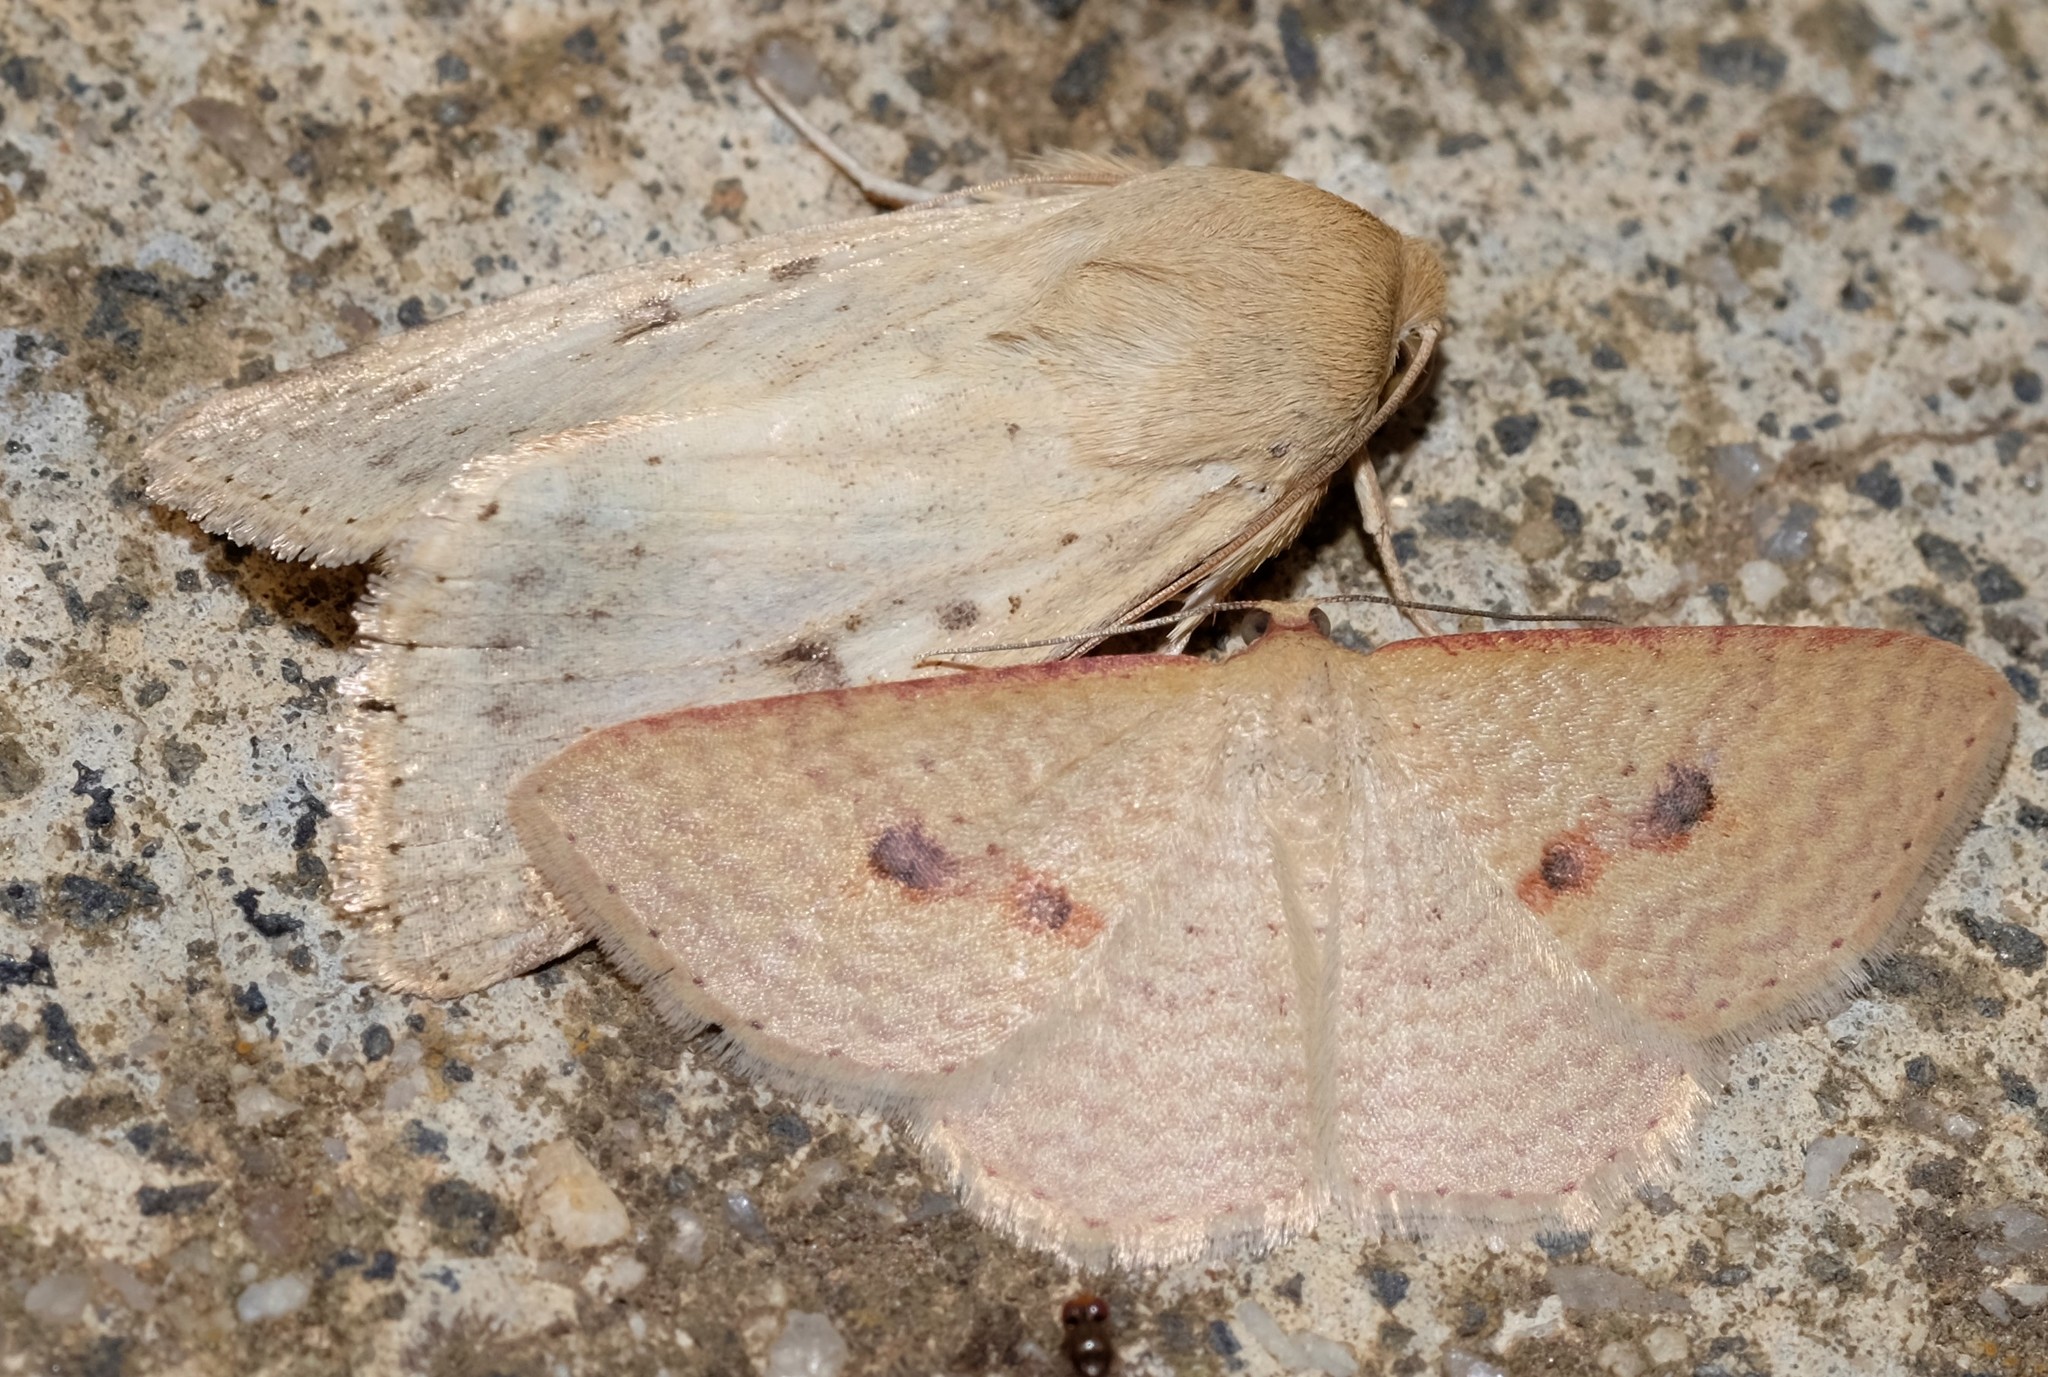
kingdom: Animalia
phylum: Arthropoda
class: Insecta
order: Lepidoptera
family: Geometridae
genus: Epicyme
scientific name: Epicyme rubropunctaria
